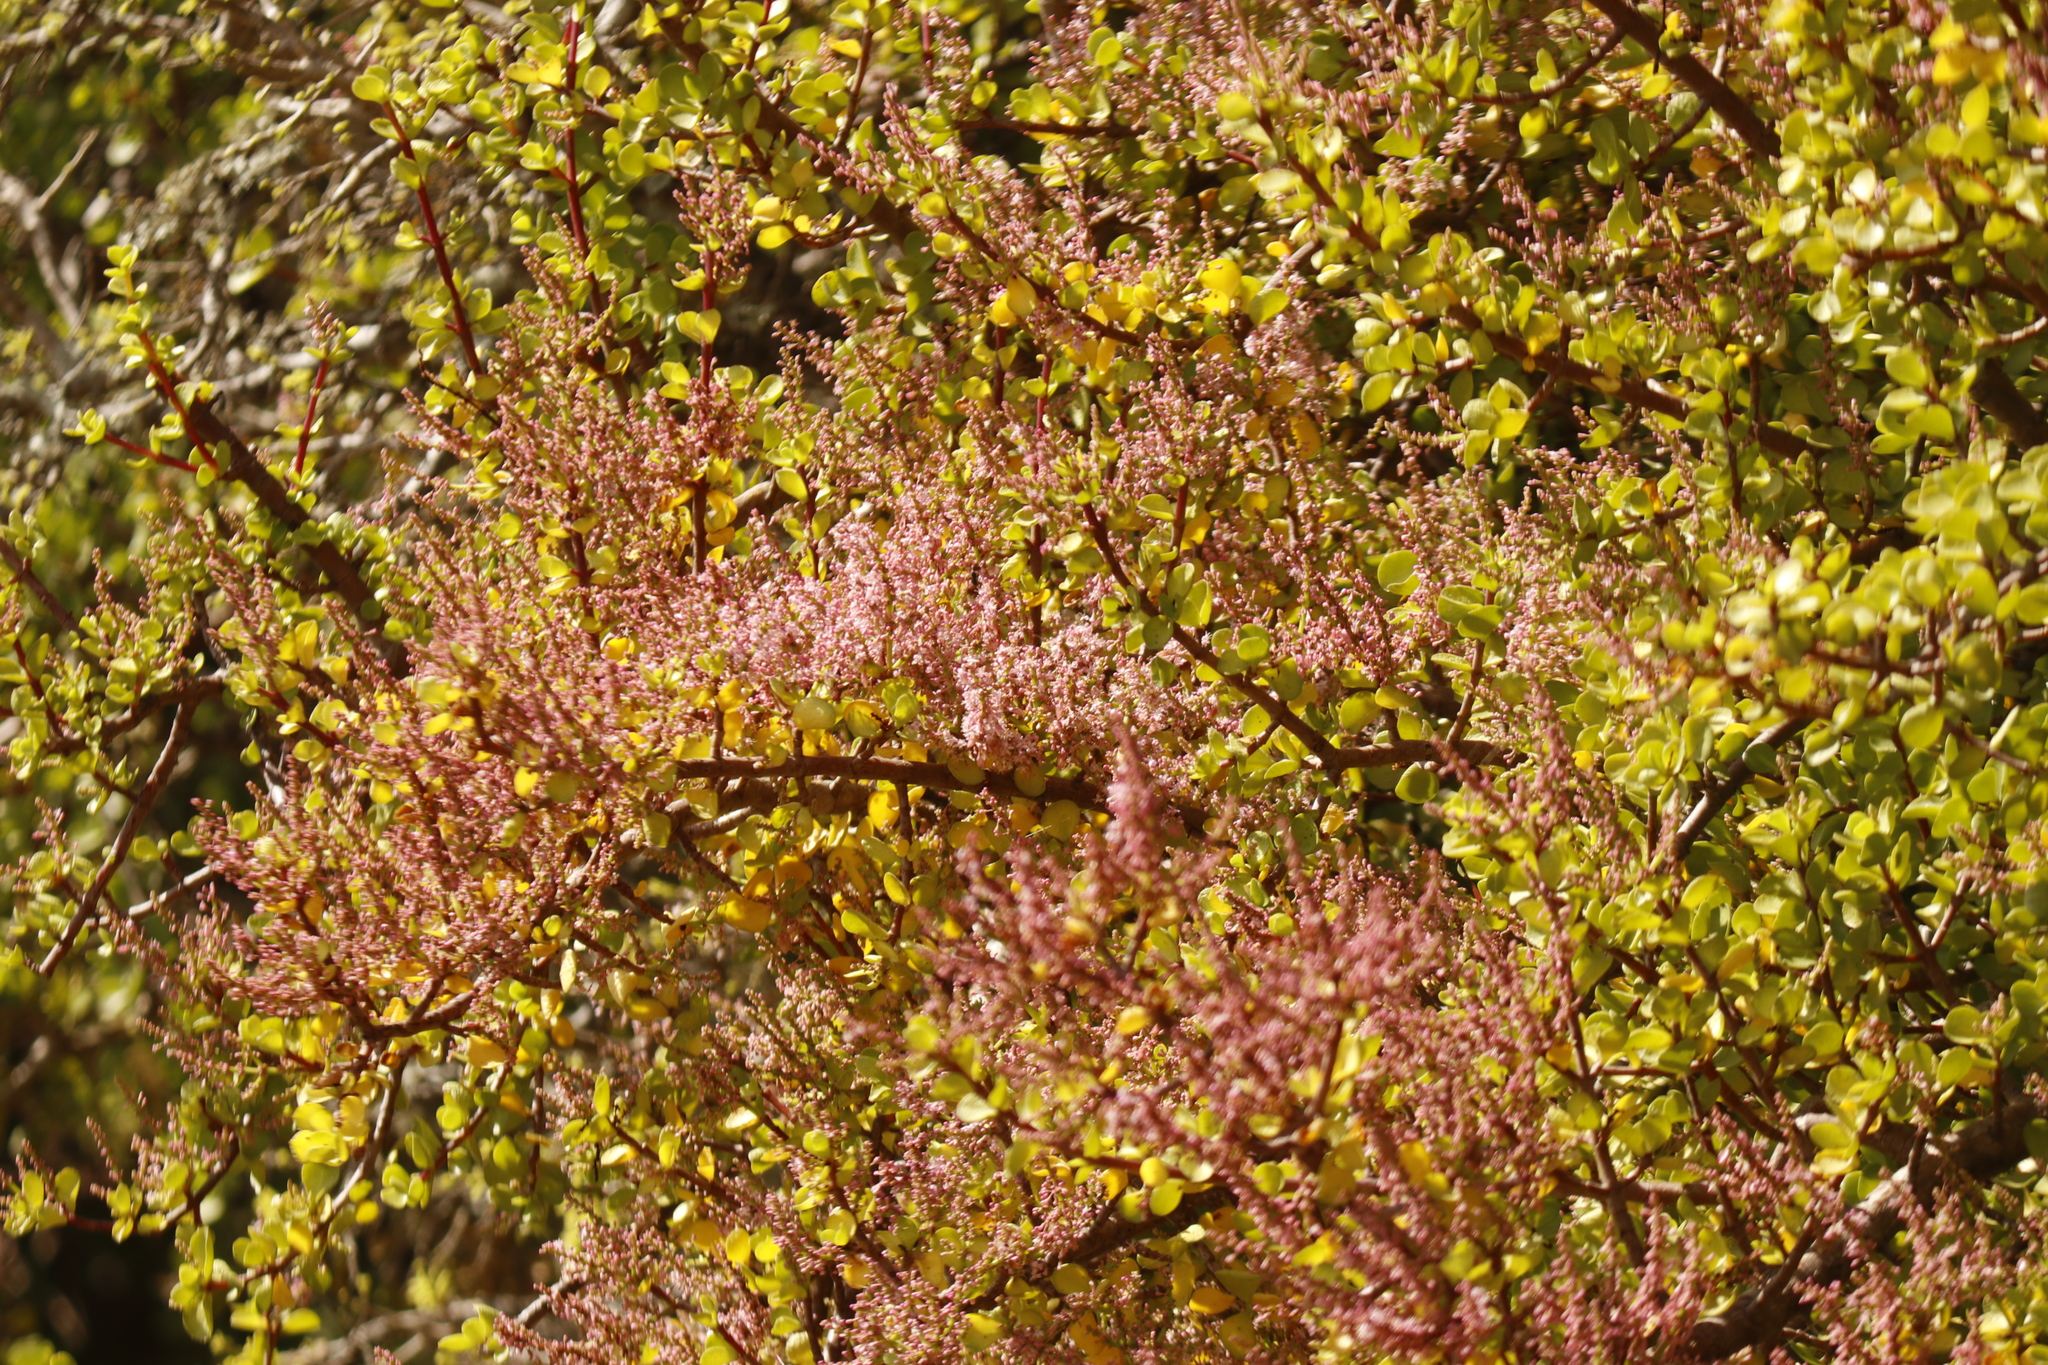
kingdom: Plantae
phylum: Tracheophyta
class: Magnoliopsida
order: Caryophyllales
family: Didiereaceae
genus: Portulacaria
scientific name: Portulacaria afra
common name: Elephant-bush
